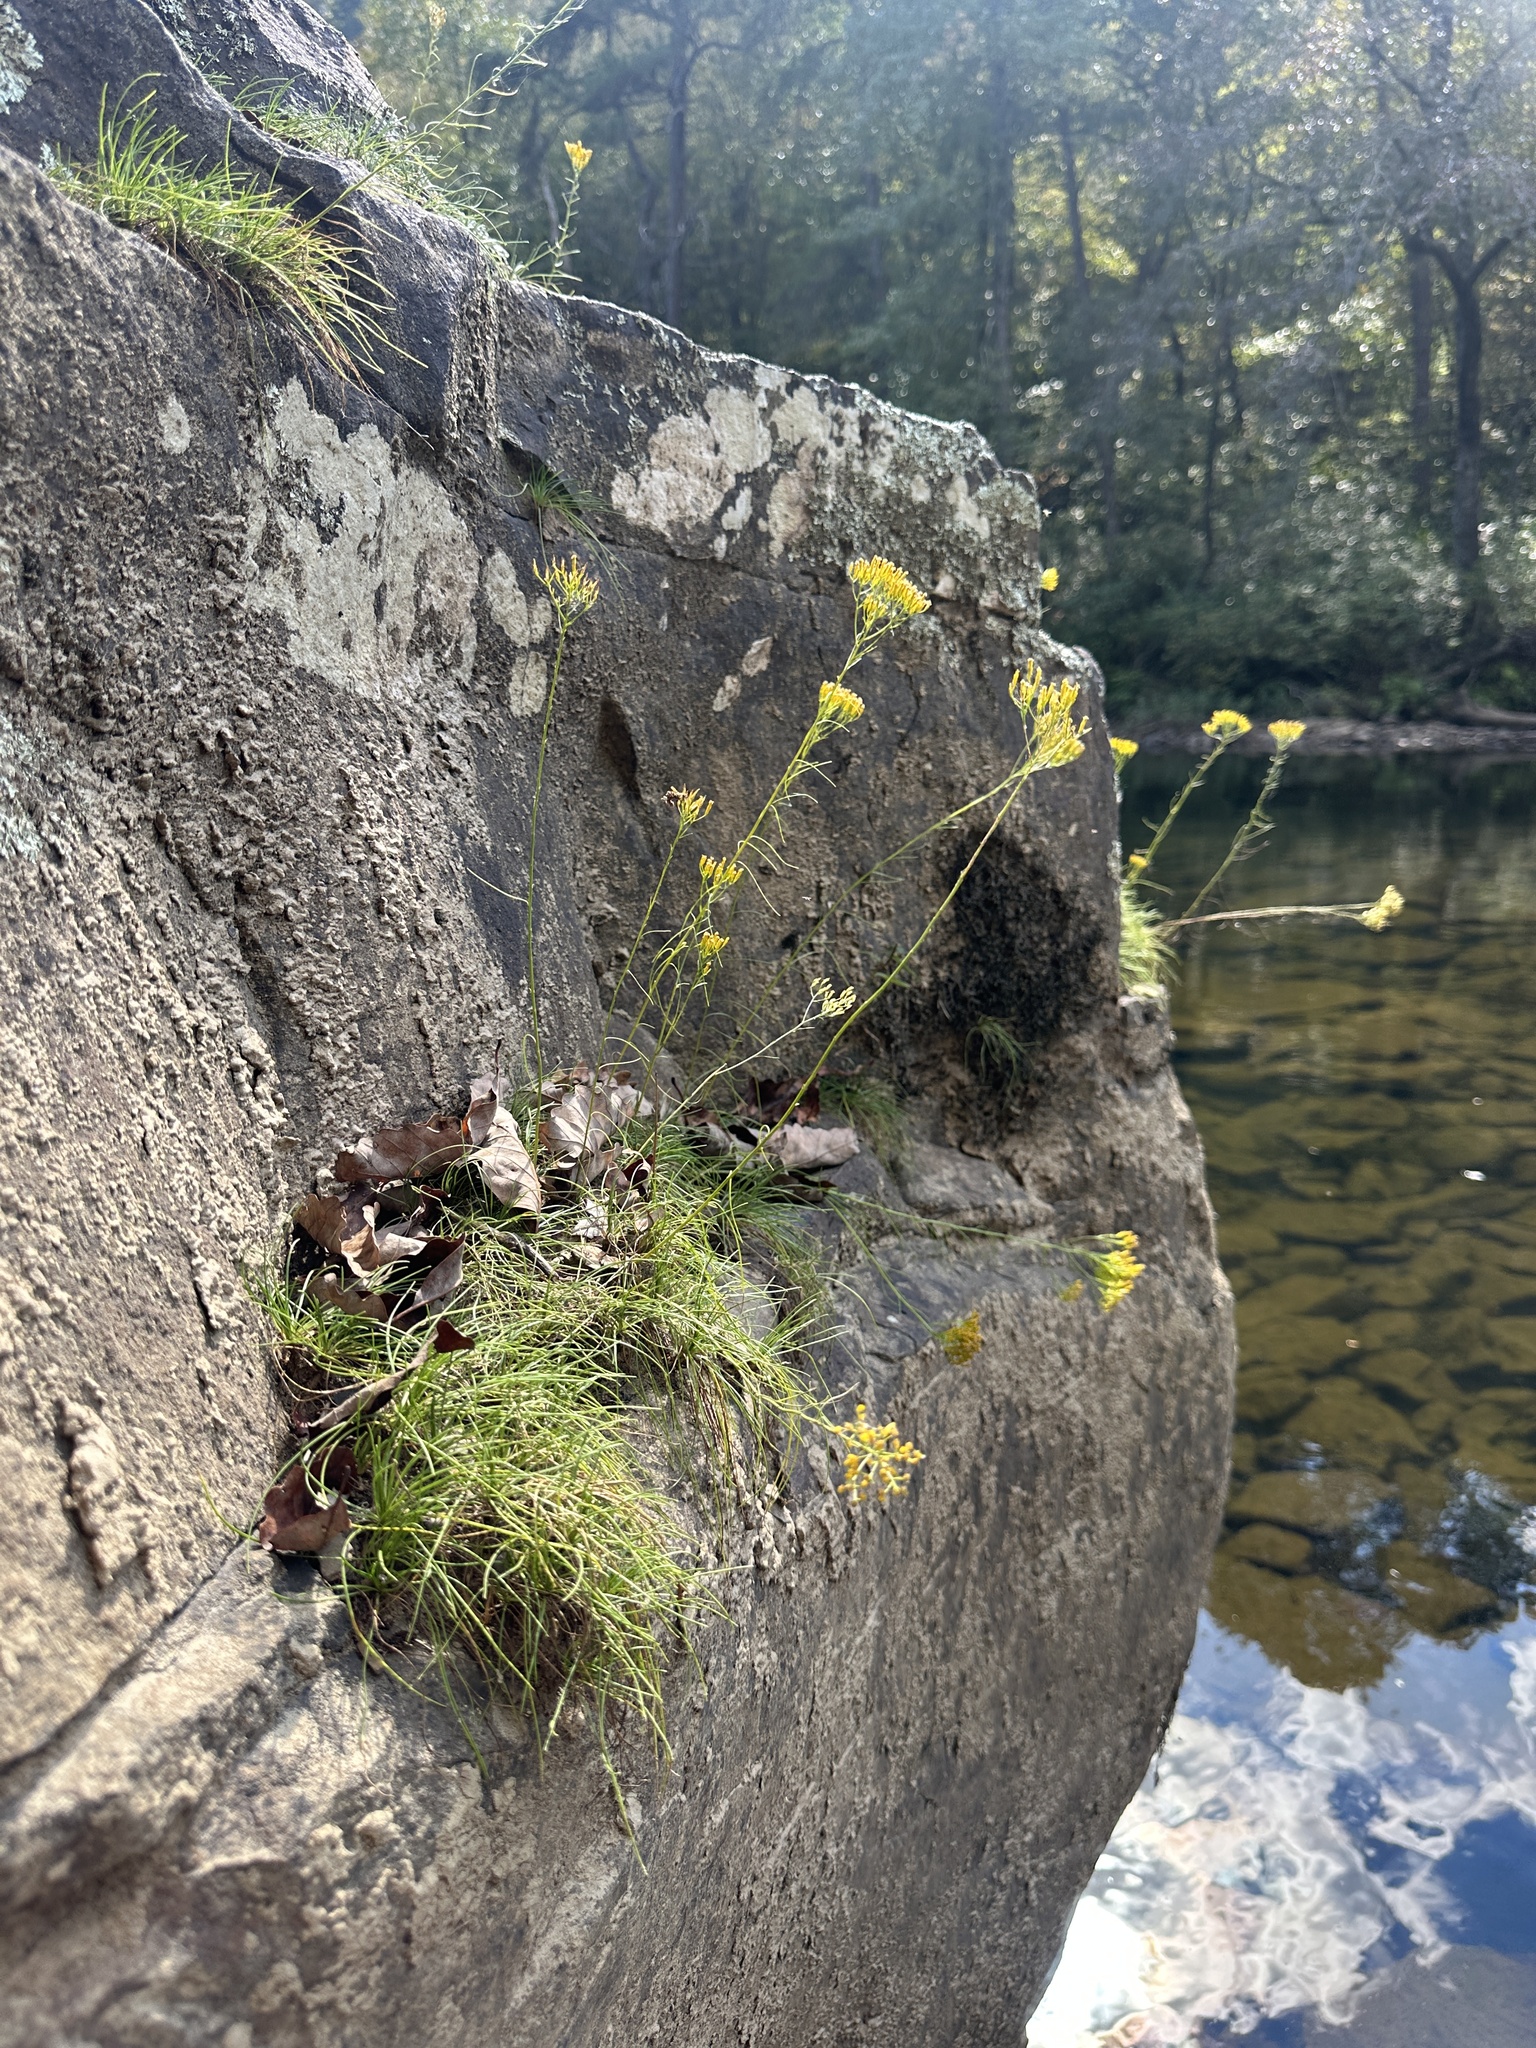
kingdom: Plantae
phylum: Tracheophyta
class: Magnoliopsida
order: Asterales
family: Asteraceae
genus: Bigelowia
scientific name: Bigelowia nuttallii
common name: Nuttall's rayless-goldenrod
